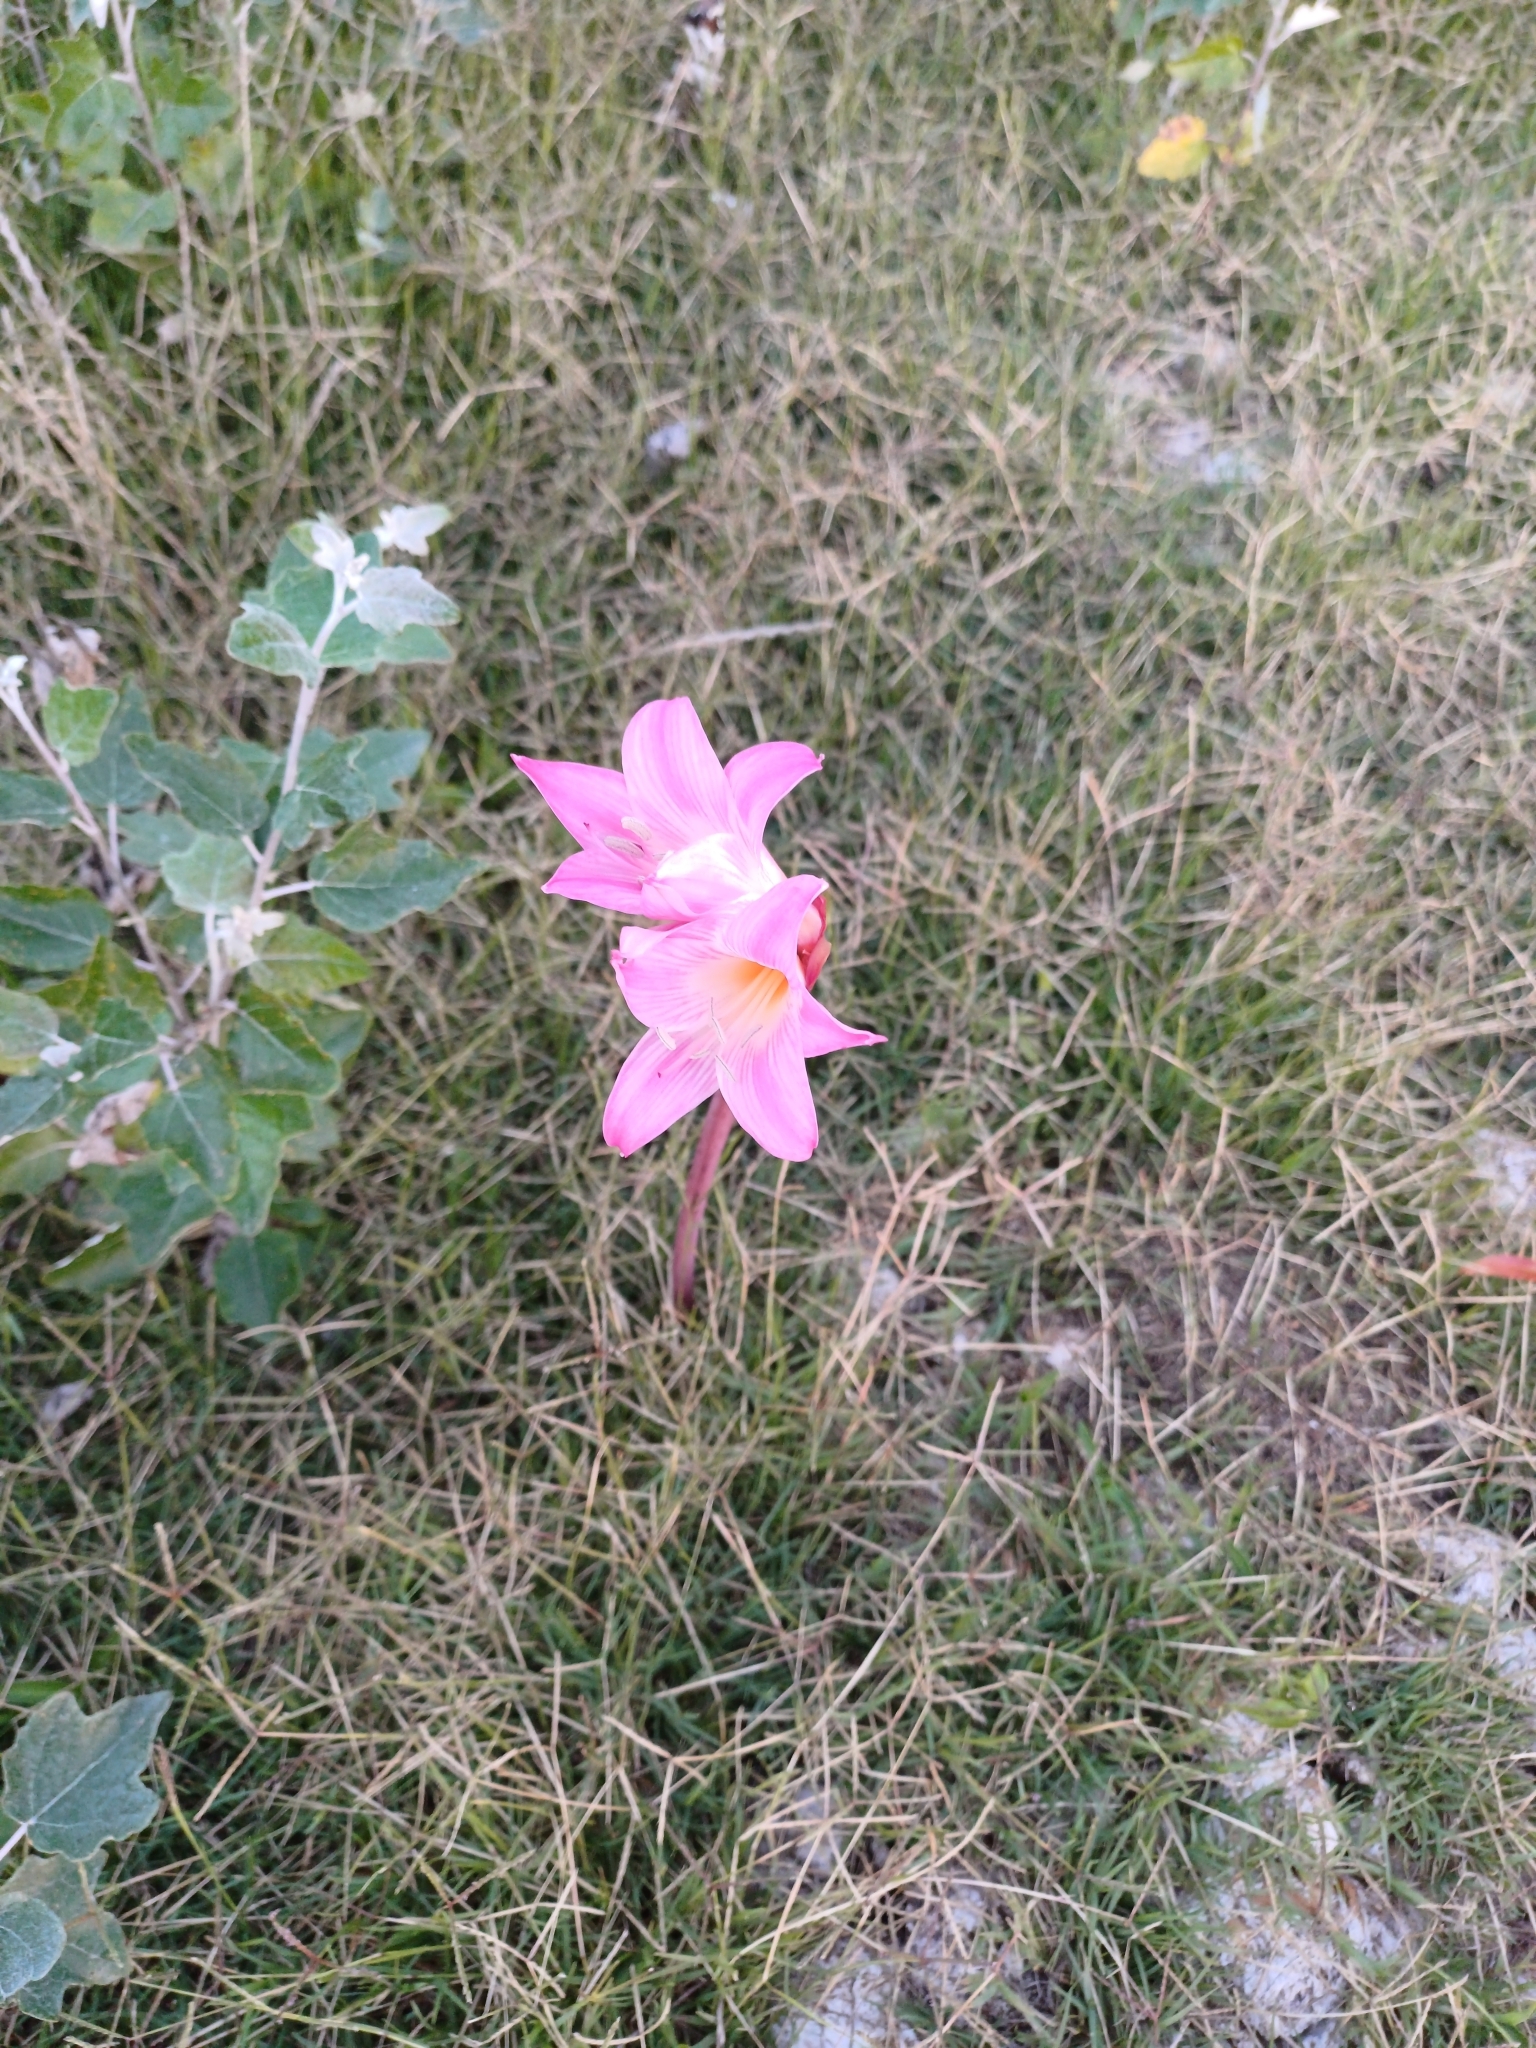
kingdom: Plantae
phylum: Tracheophyta
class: Liliopsida
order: Asparagales
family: Amaryllidaceae
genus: Amaryllis
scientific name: Amaryllis belladonna
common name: Jersey lily
